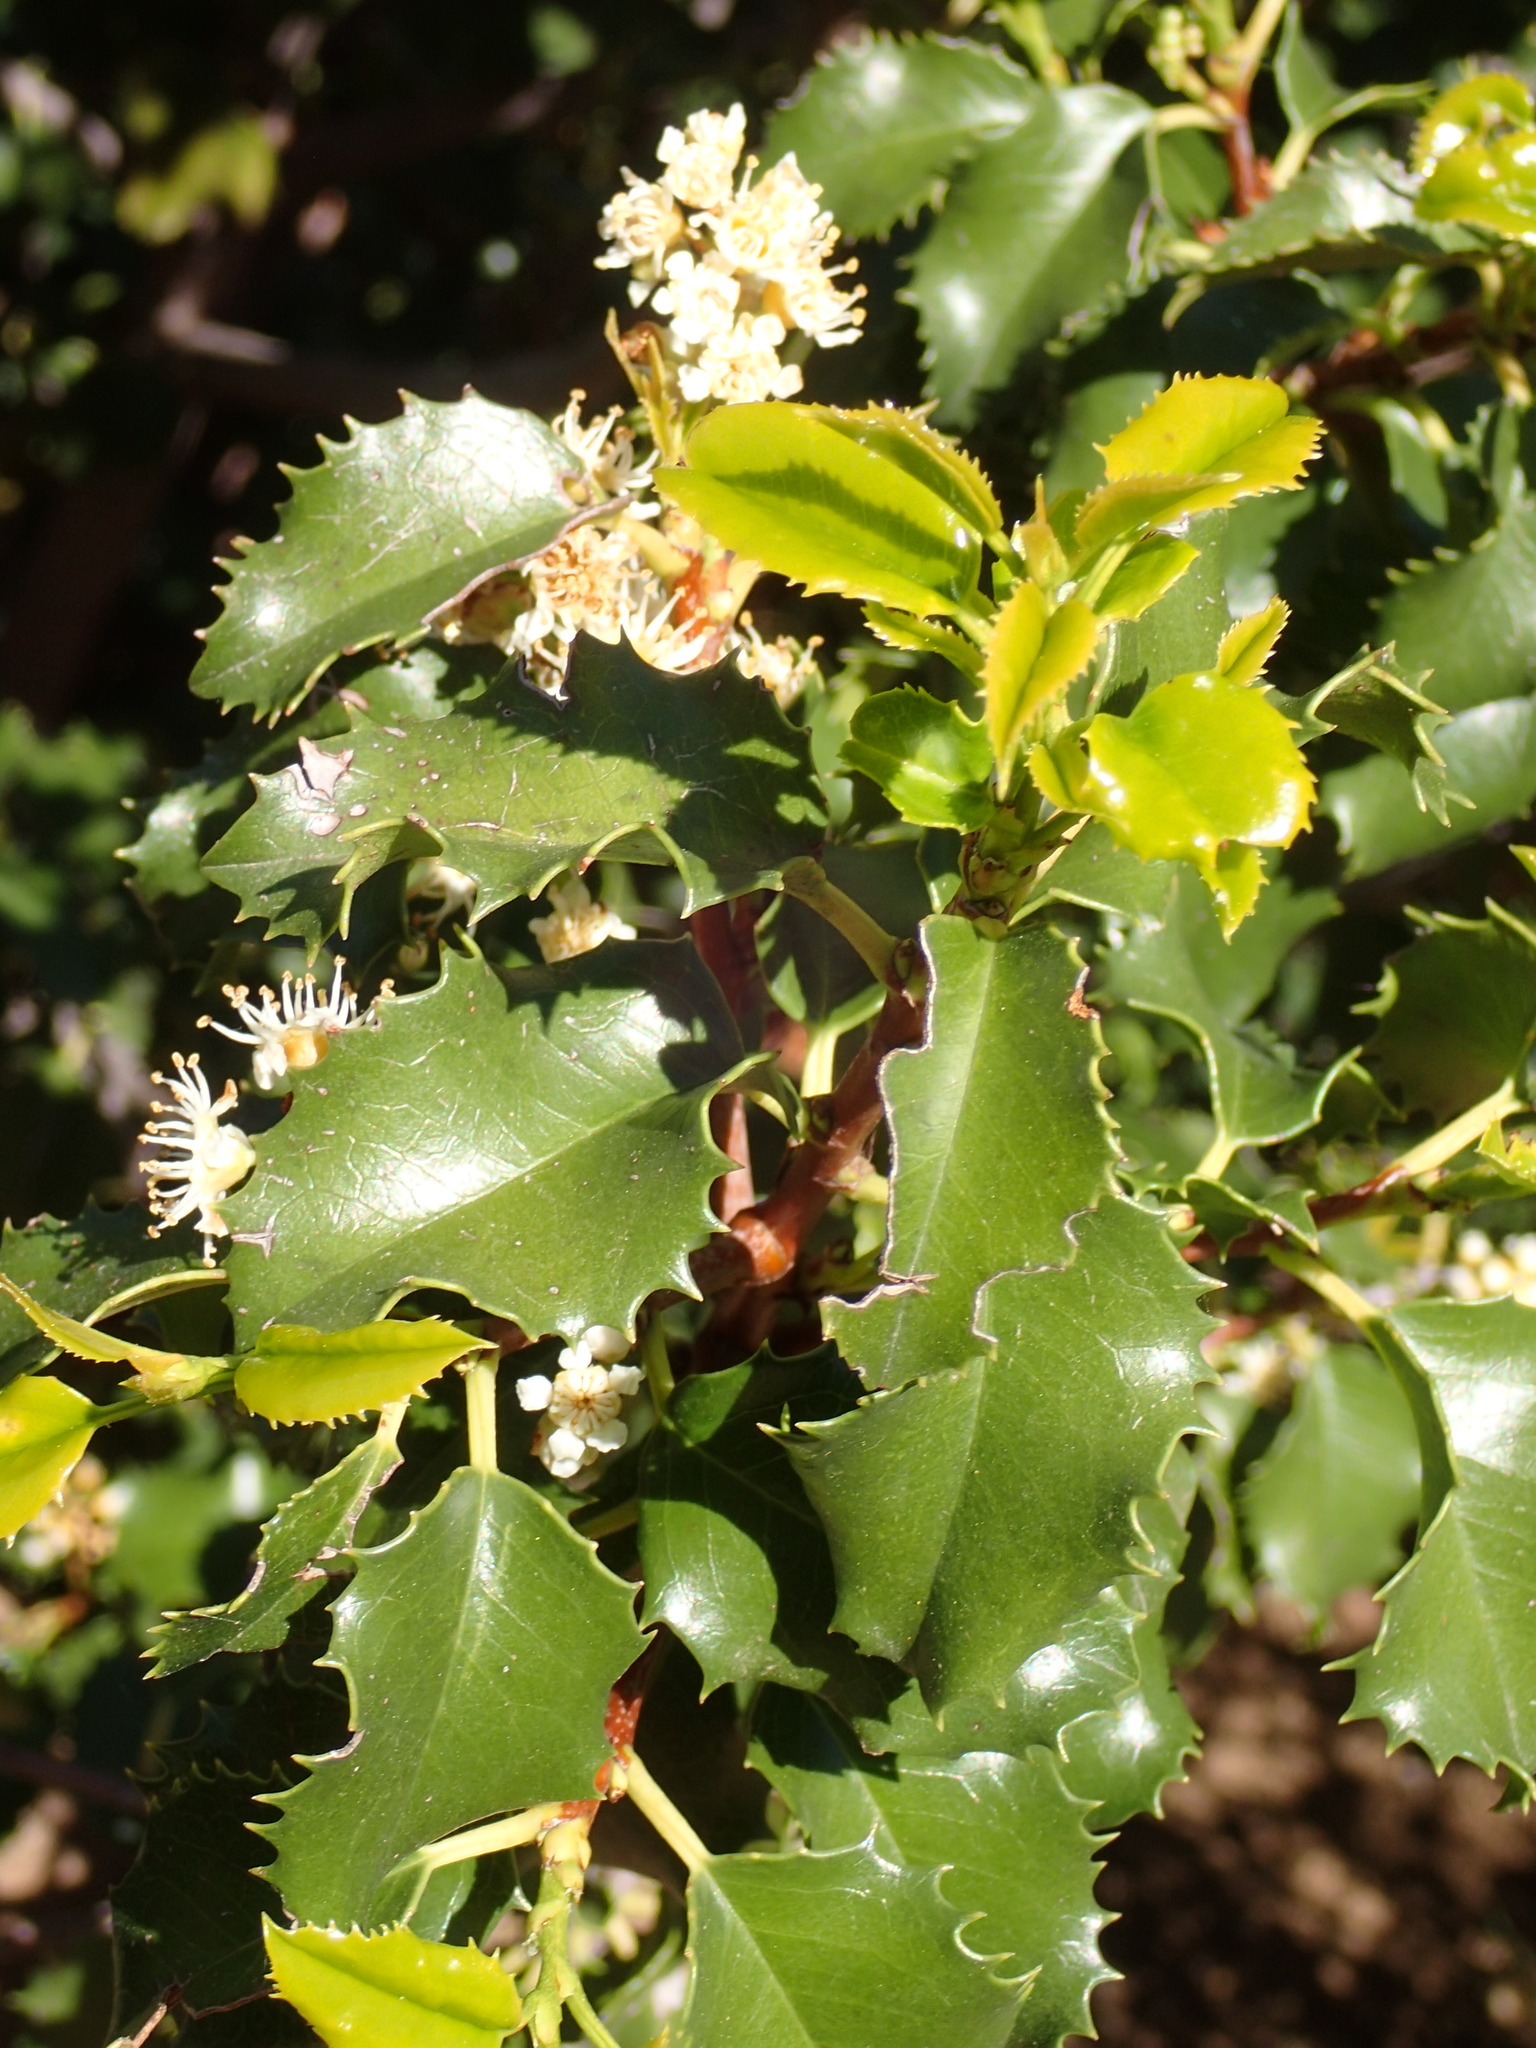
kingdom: Plantae
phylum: Tracheophyta
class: Magnoliopsida
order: Rosales
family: Rosaceae
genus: Prunus
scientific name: Prunus ilicifolia
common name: Hollyleaf cherry
